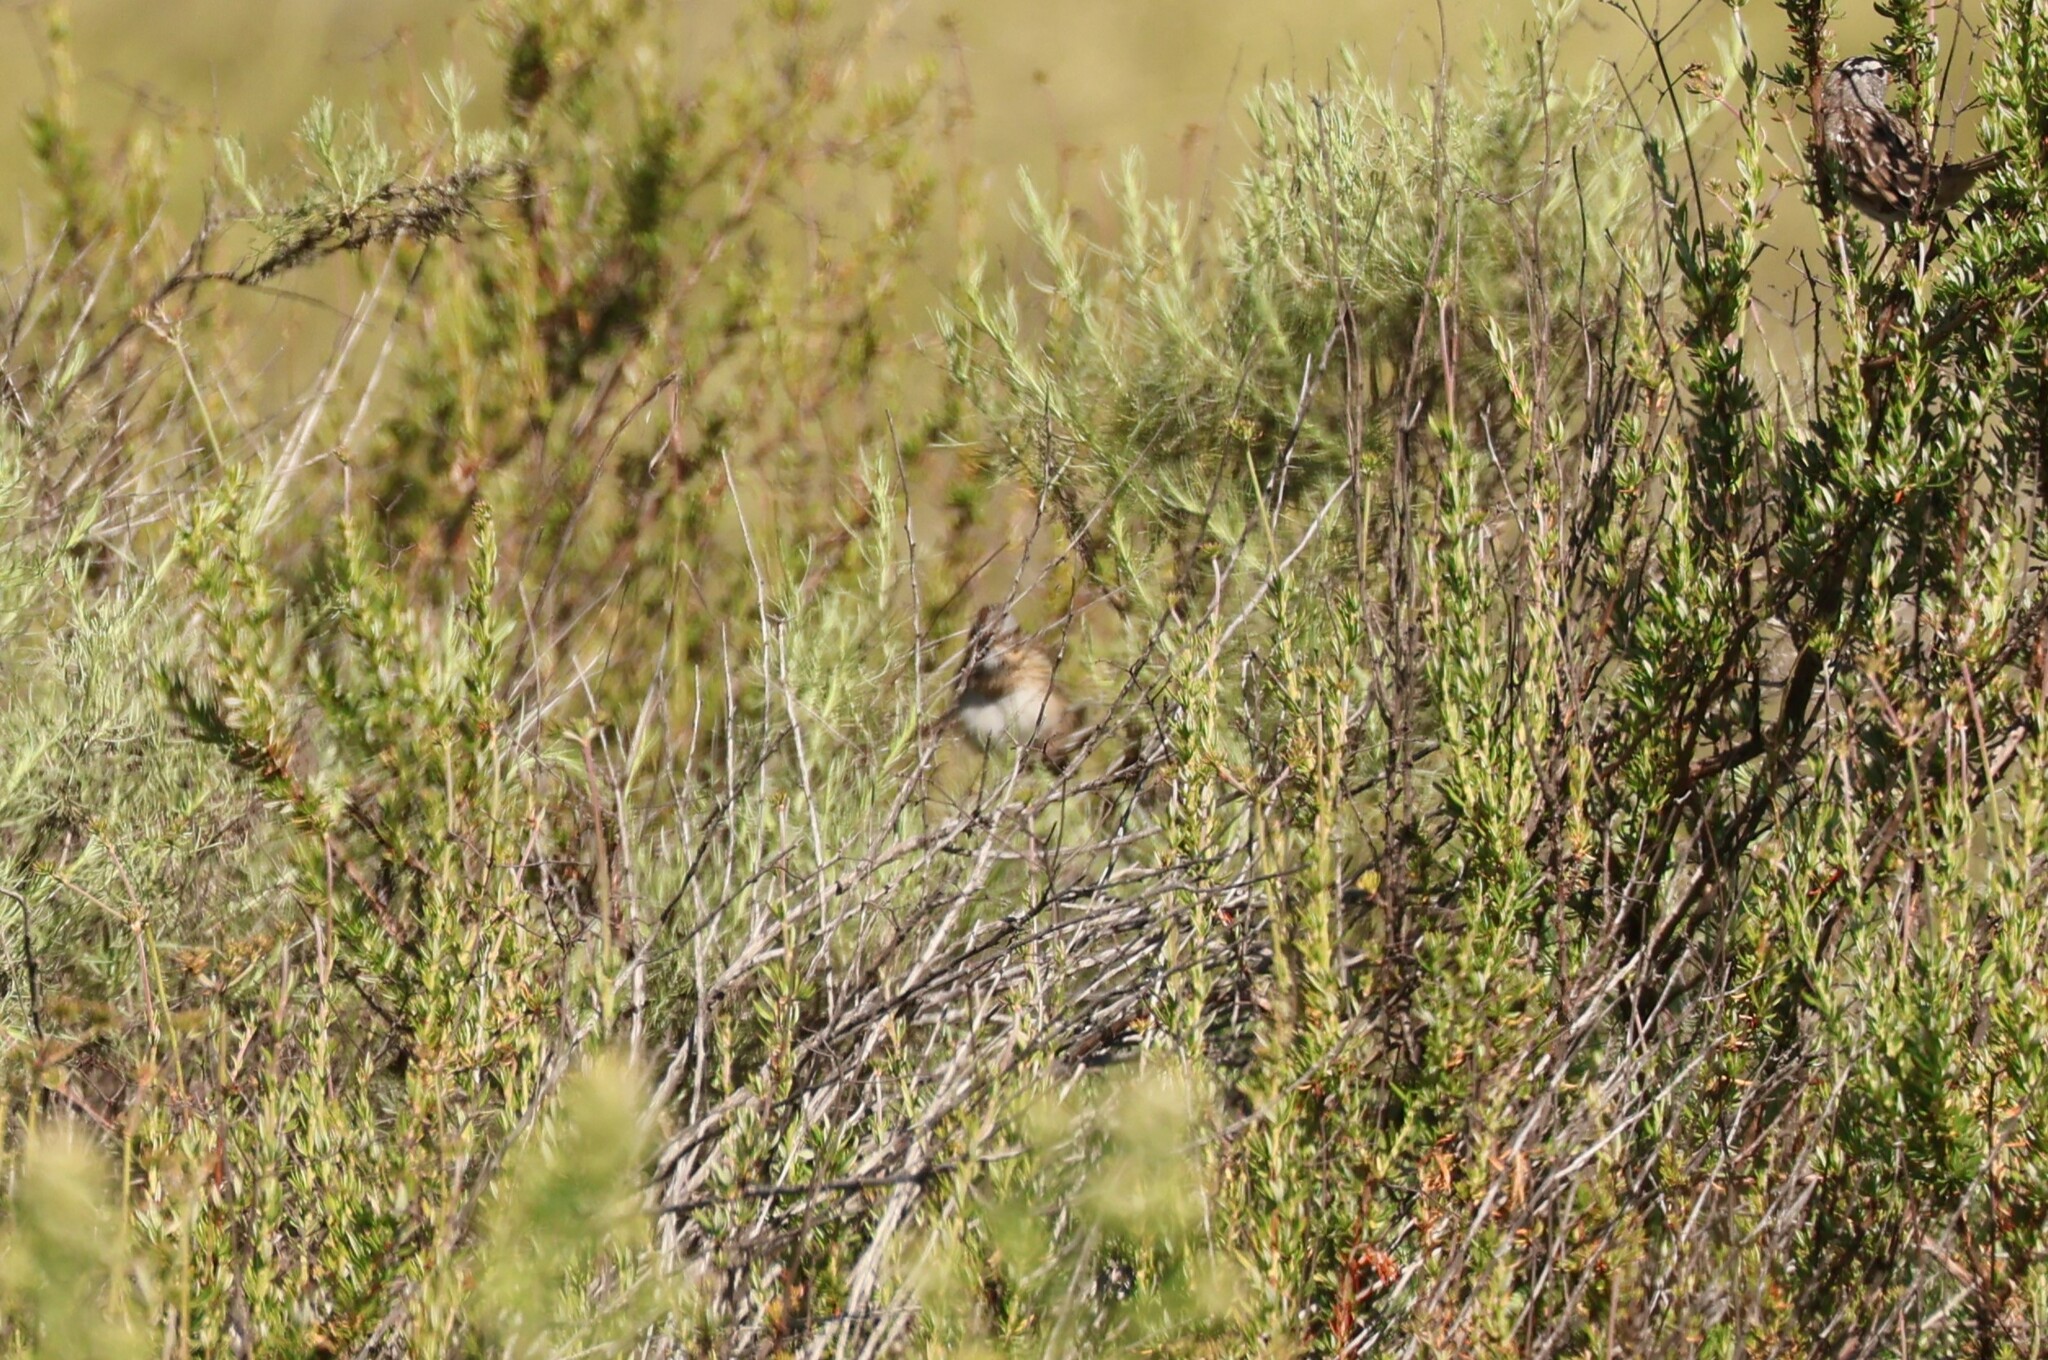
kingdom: Animalia
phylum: Chordata
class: Aves
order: Passeriformes
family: Passerellidae
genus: Melospiza
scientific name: Melospiza lincolnii
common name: Lincoln's sparrow
